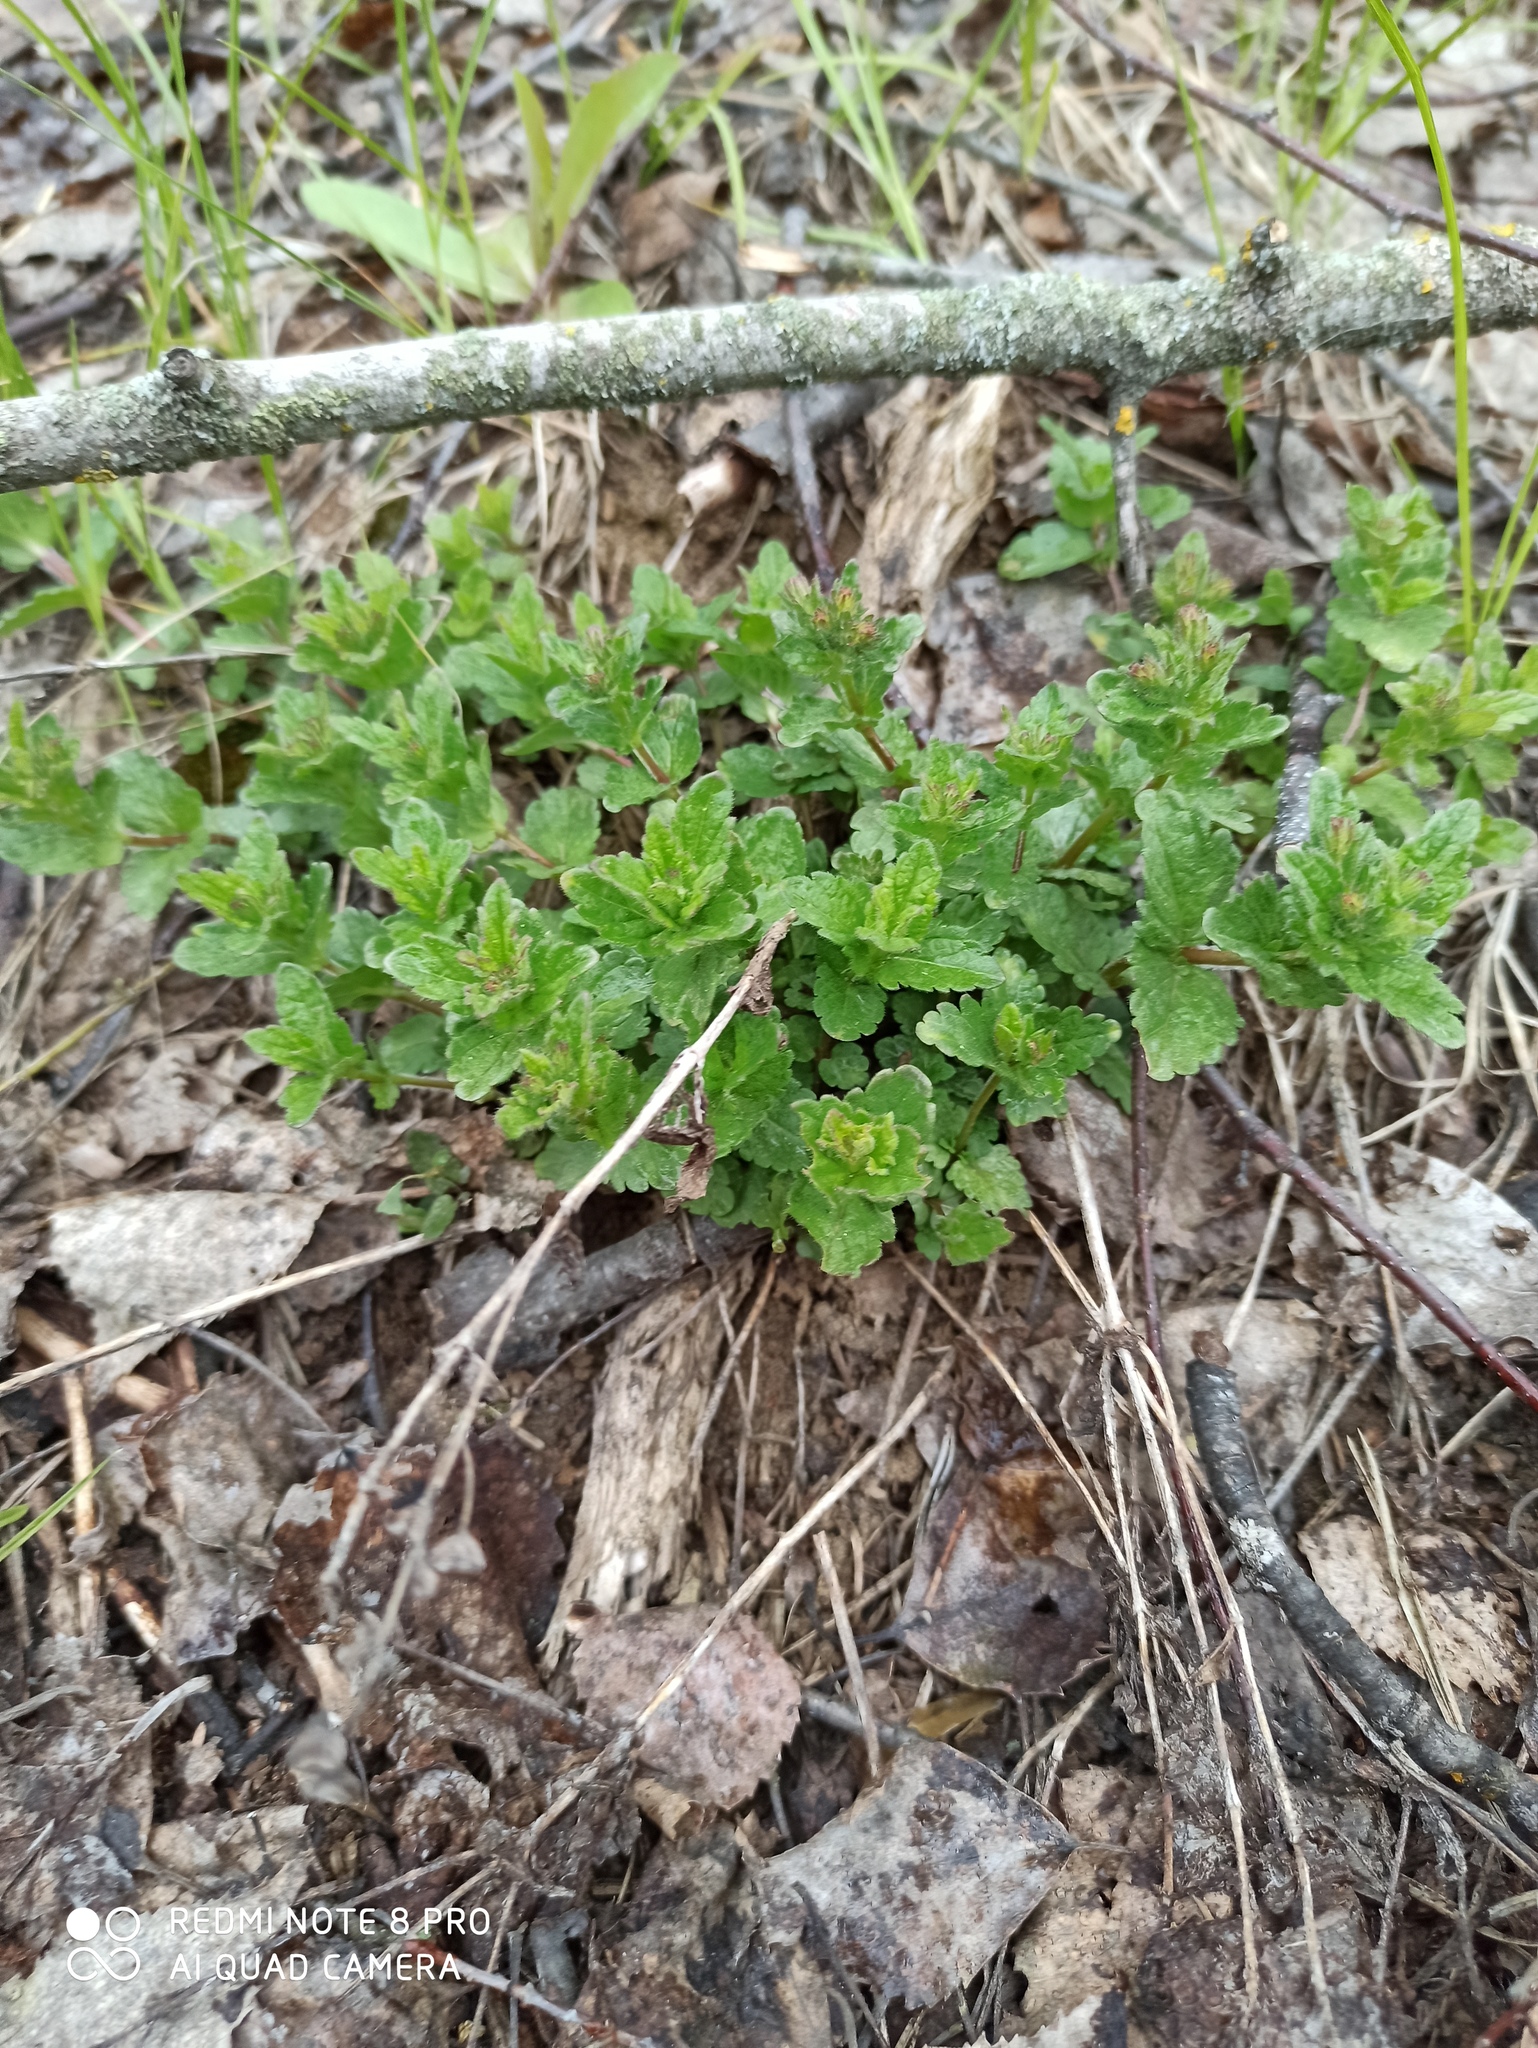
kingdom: Plantae
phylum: Tracheophyta
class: Magnoliopsida
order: Lamiales
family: Plantaginaceae
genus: Veronica
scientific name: Veronica chamaedrys
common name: Germander speedwell
